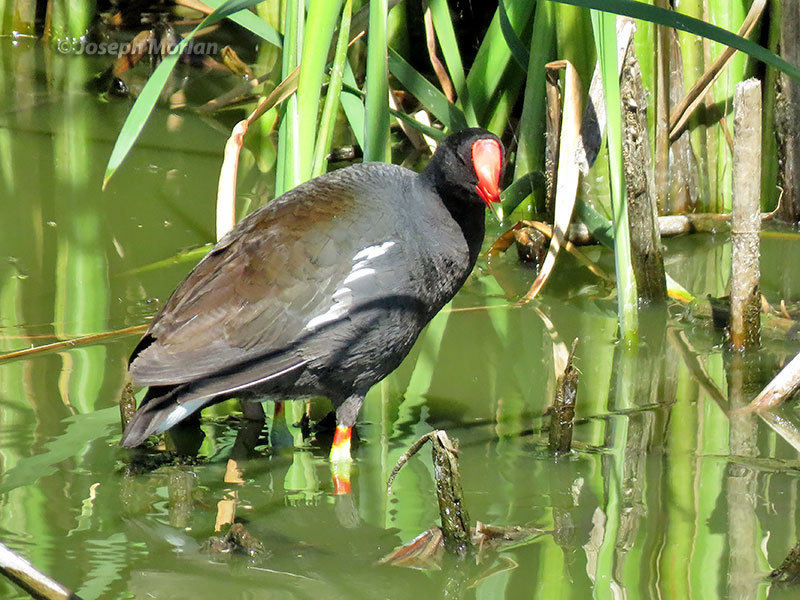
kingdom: Animalia
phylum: Chordata
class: Aves
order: Gruiformes
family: Rallidae
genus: Gallinula
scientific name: Gallinula chloropus
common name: Common moorhen
